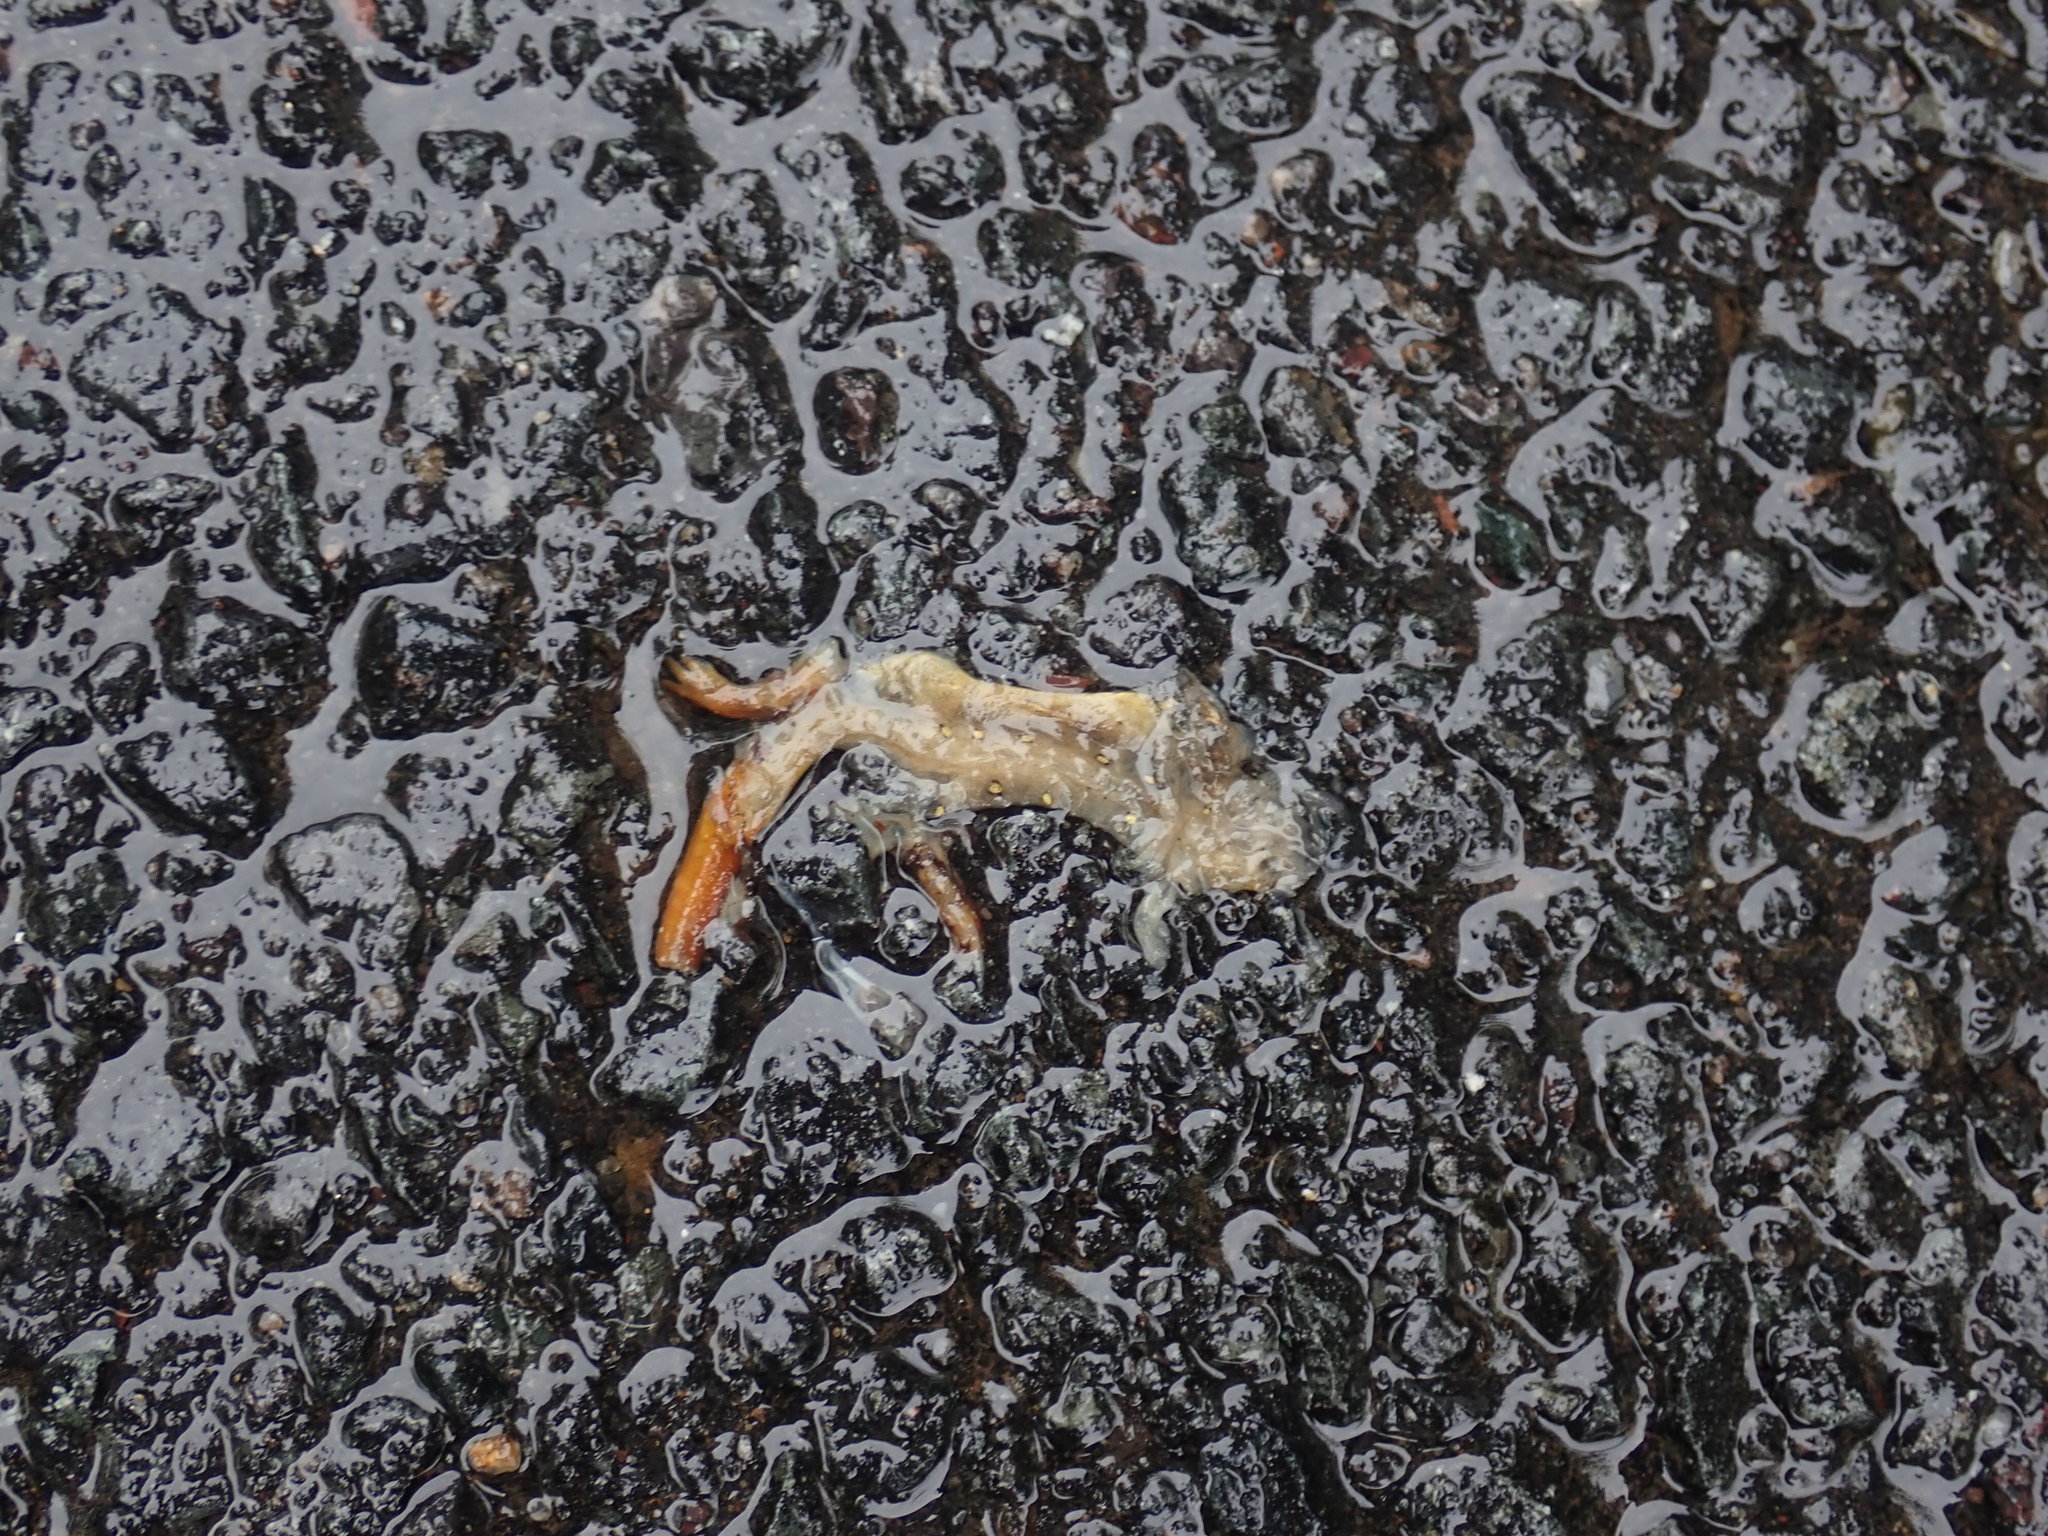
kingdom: Animalia
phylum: Chordata
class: Amphibia
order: Caudata
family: Salamandridae
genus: Notophthalmus
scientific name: Notophthalmus viridescens
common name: Eastern newt
